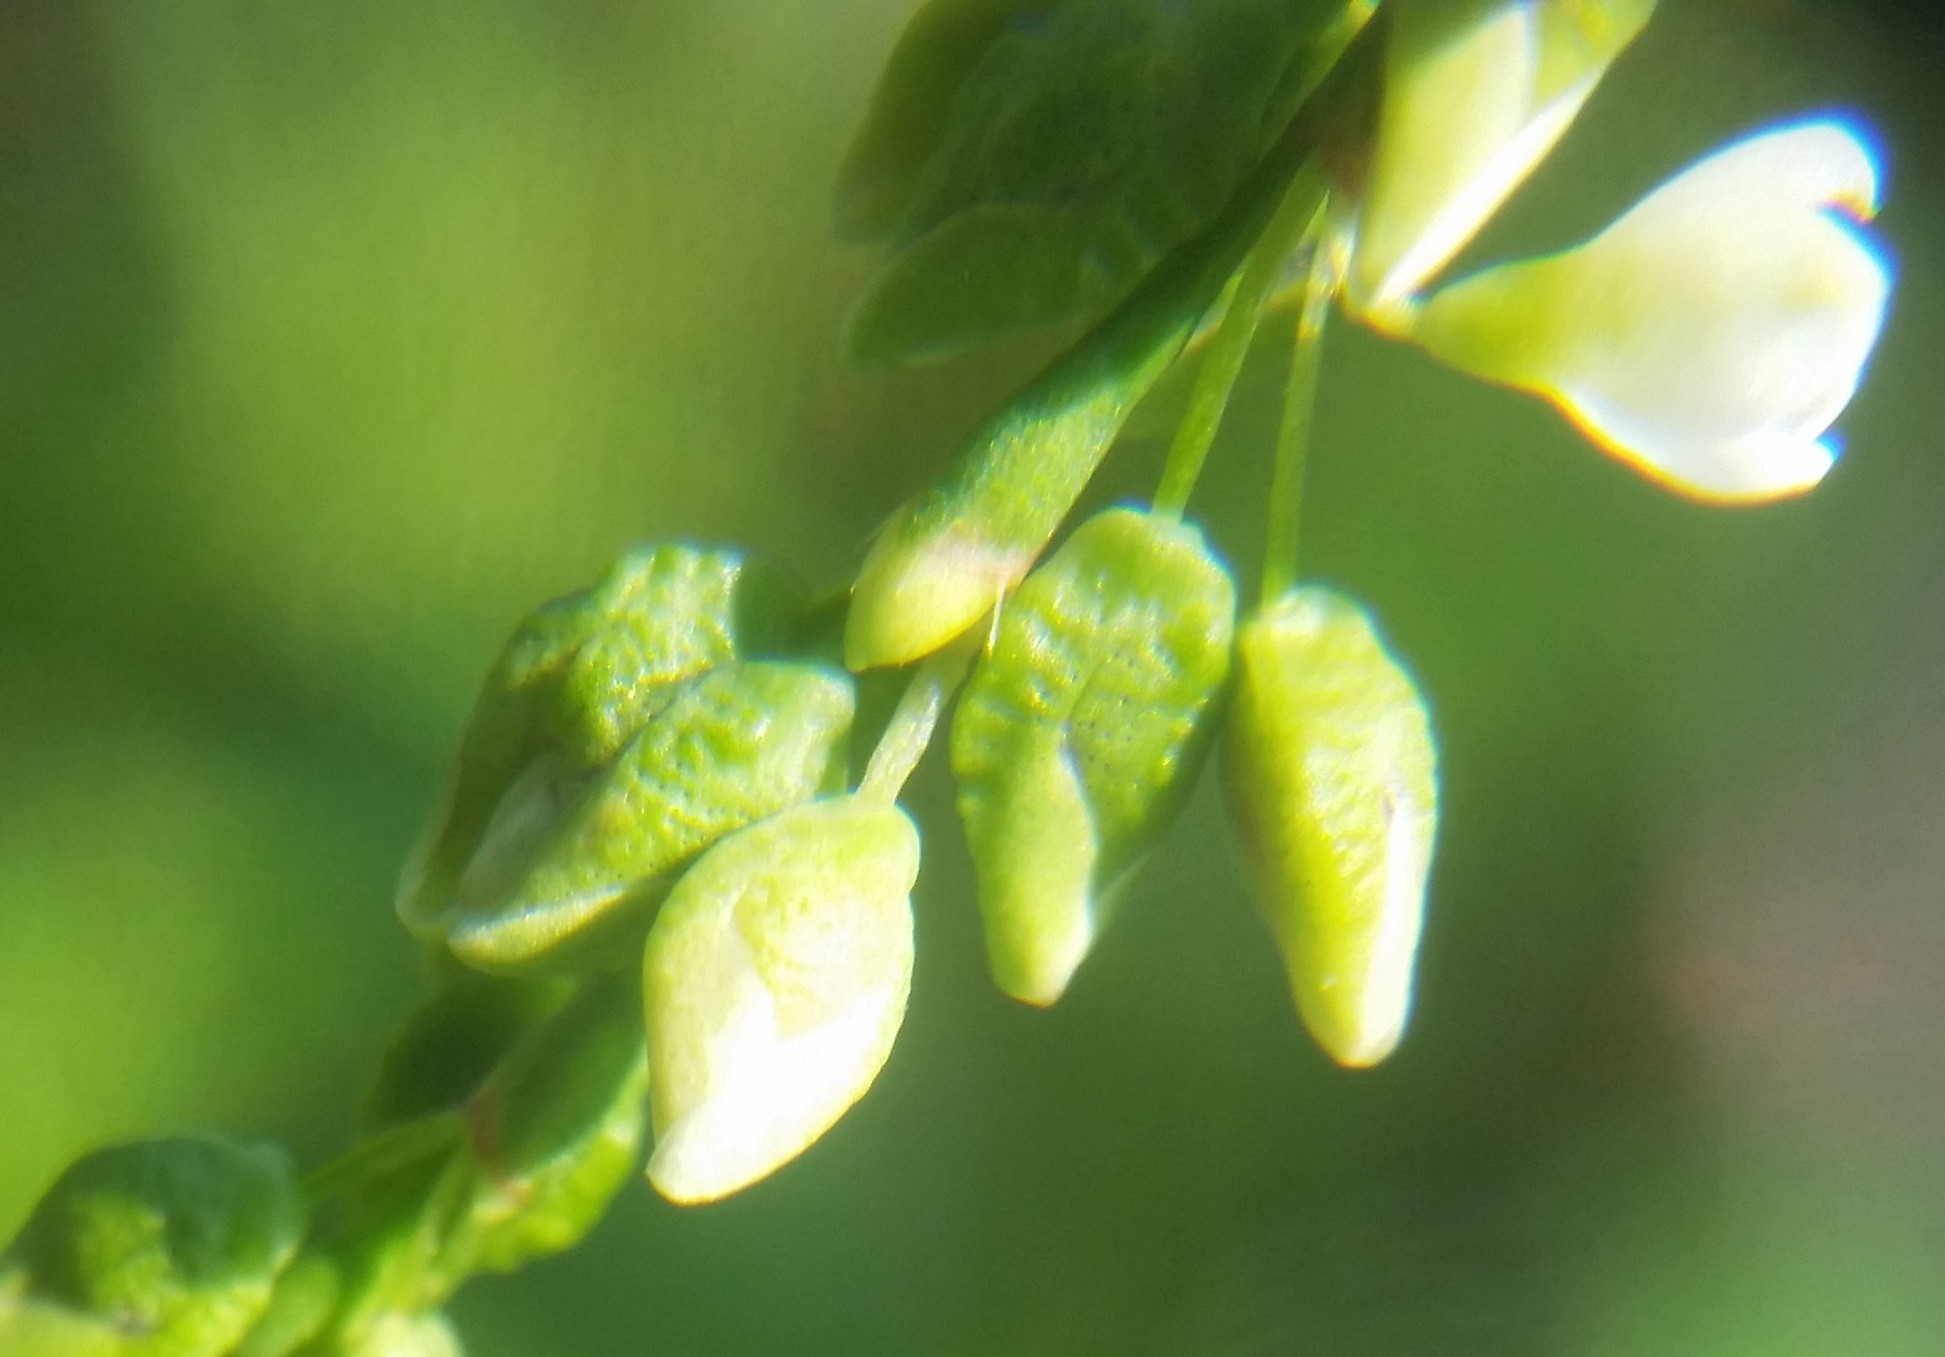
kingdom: Plantae
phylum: Tracheophyta
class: Magnoliopsida
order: Caryophyllales
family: Polygonaceae
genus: Persicaria
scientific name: Persicaria hydropiper
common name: Water-pepper
